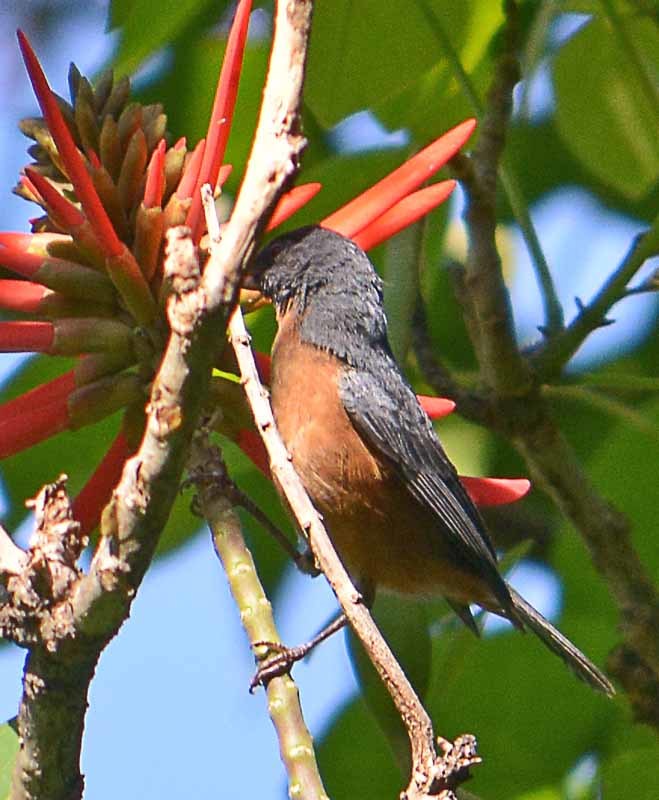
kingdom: Animalia
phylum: Chordata
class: Aves
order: Passeriformes
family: Thraupidae
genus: Diglossa
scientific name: Diglossa baritula
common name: Cinnamon-bellied flowerpiercer
